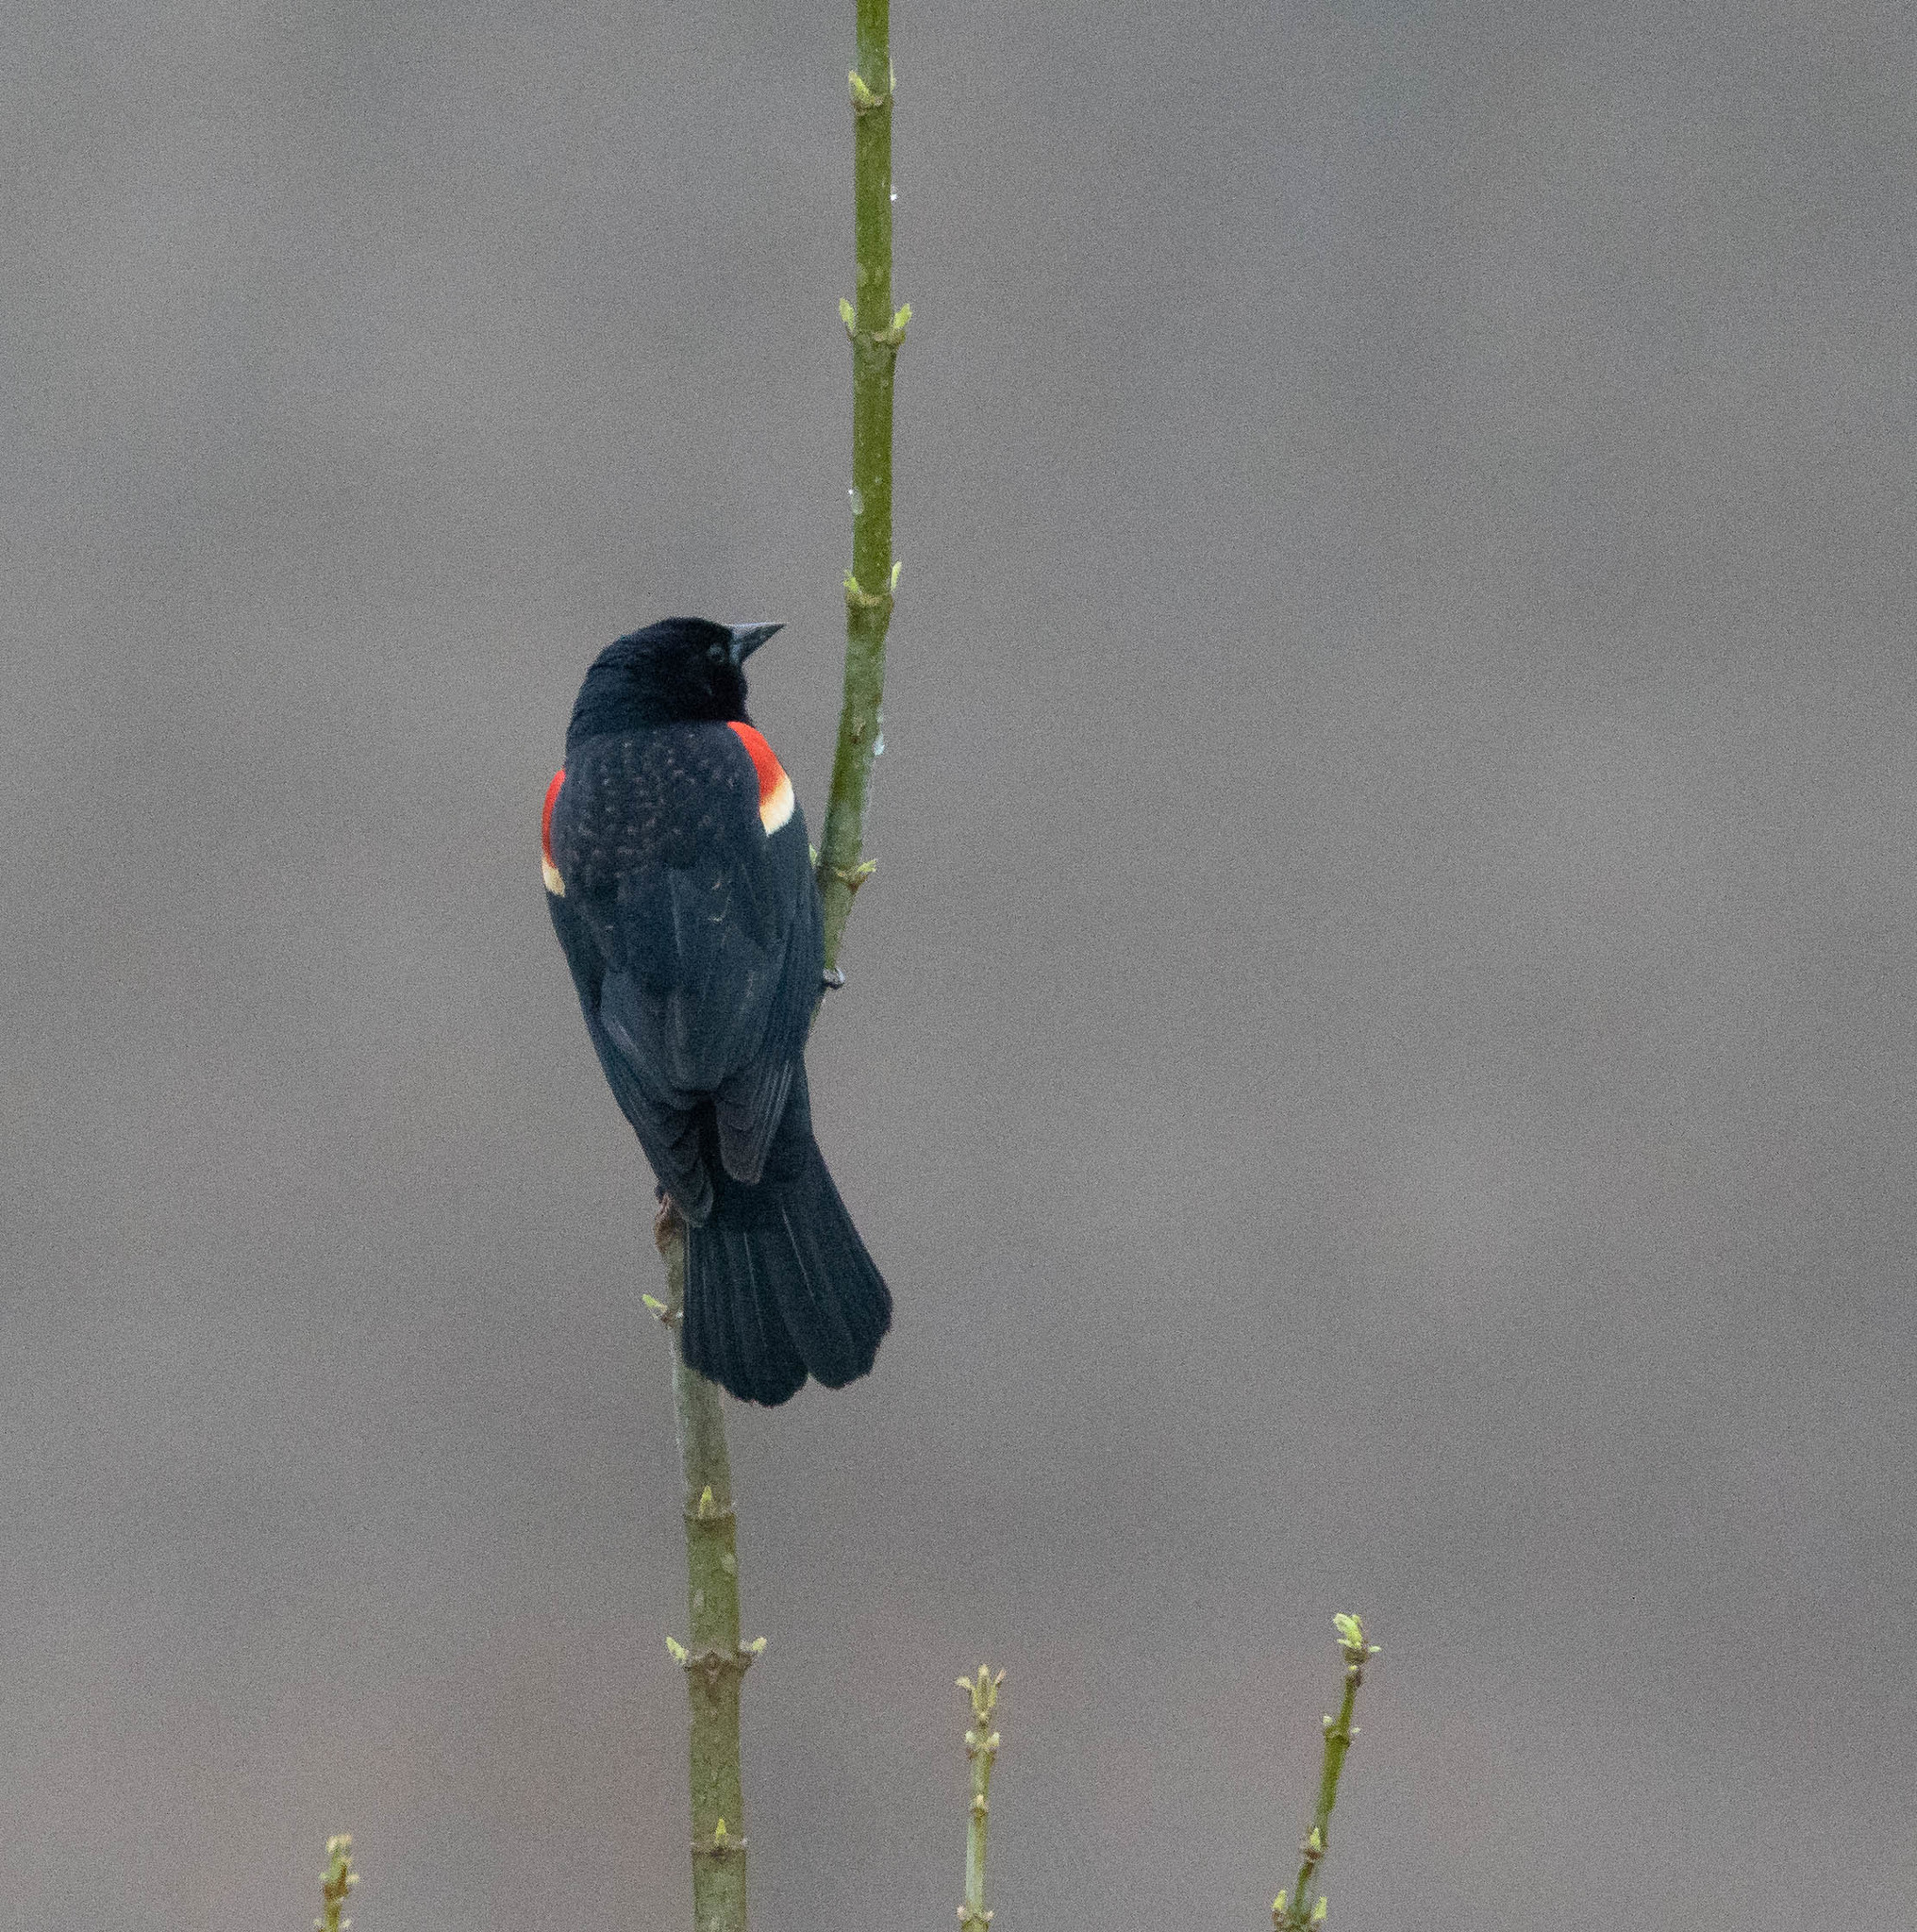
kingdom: Animalia
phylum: Chordata
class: Aves
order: Passeriformes
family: Icteridae
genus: Agelaius
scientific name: Agelaius phoeniceus
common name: Red-winged blackbird
